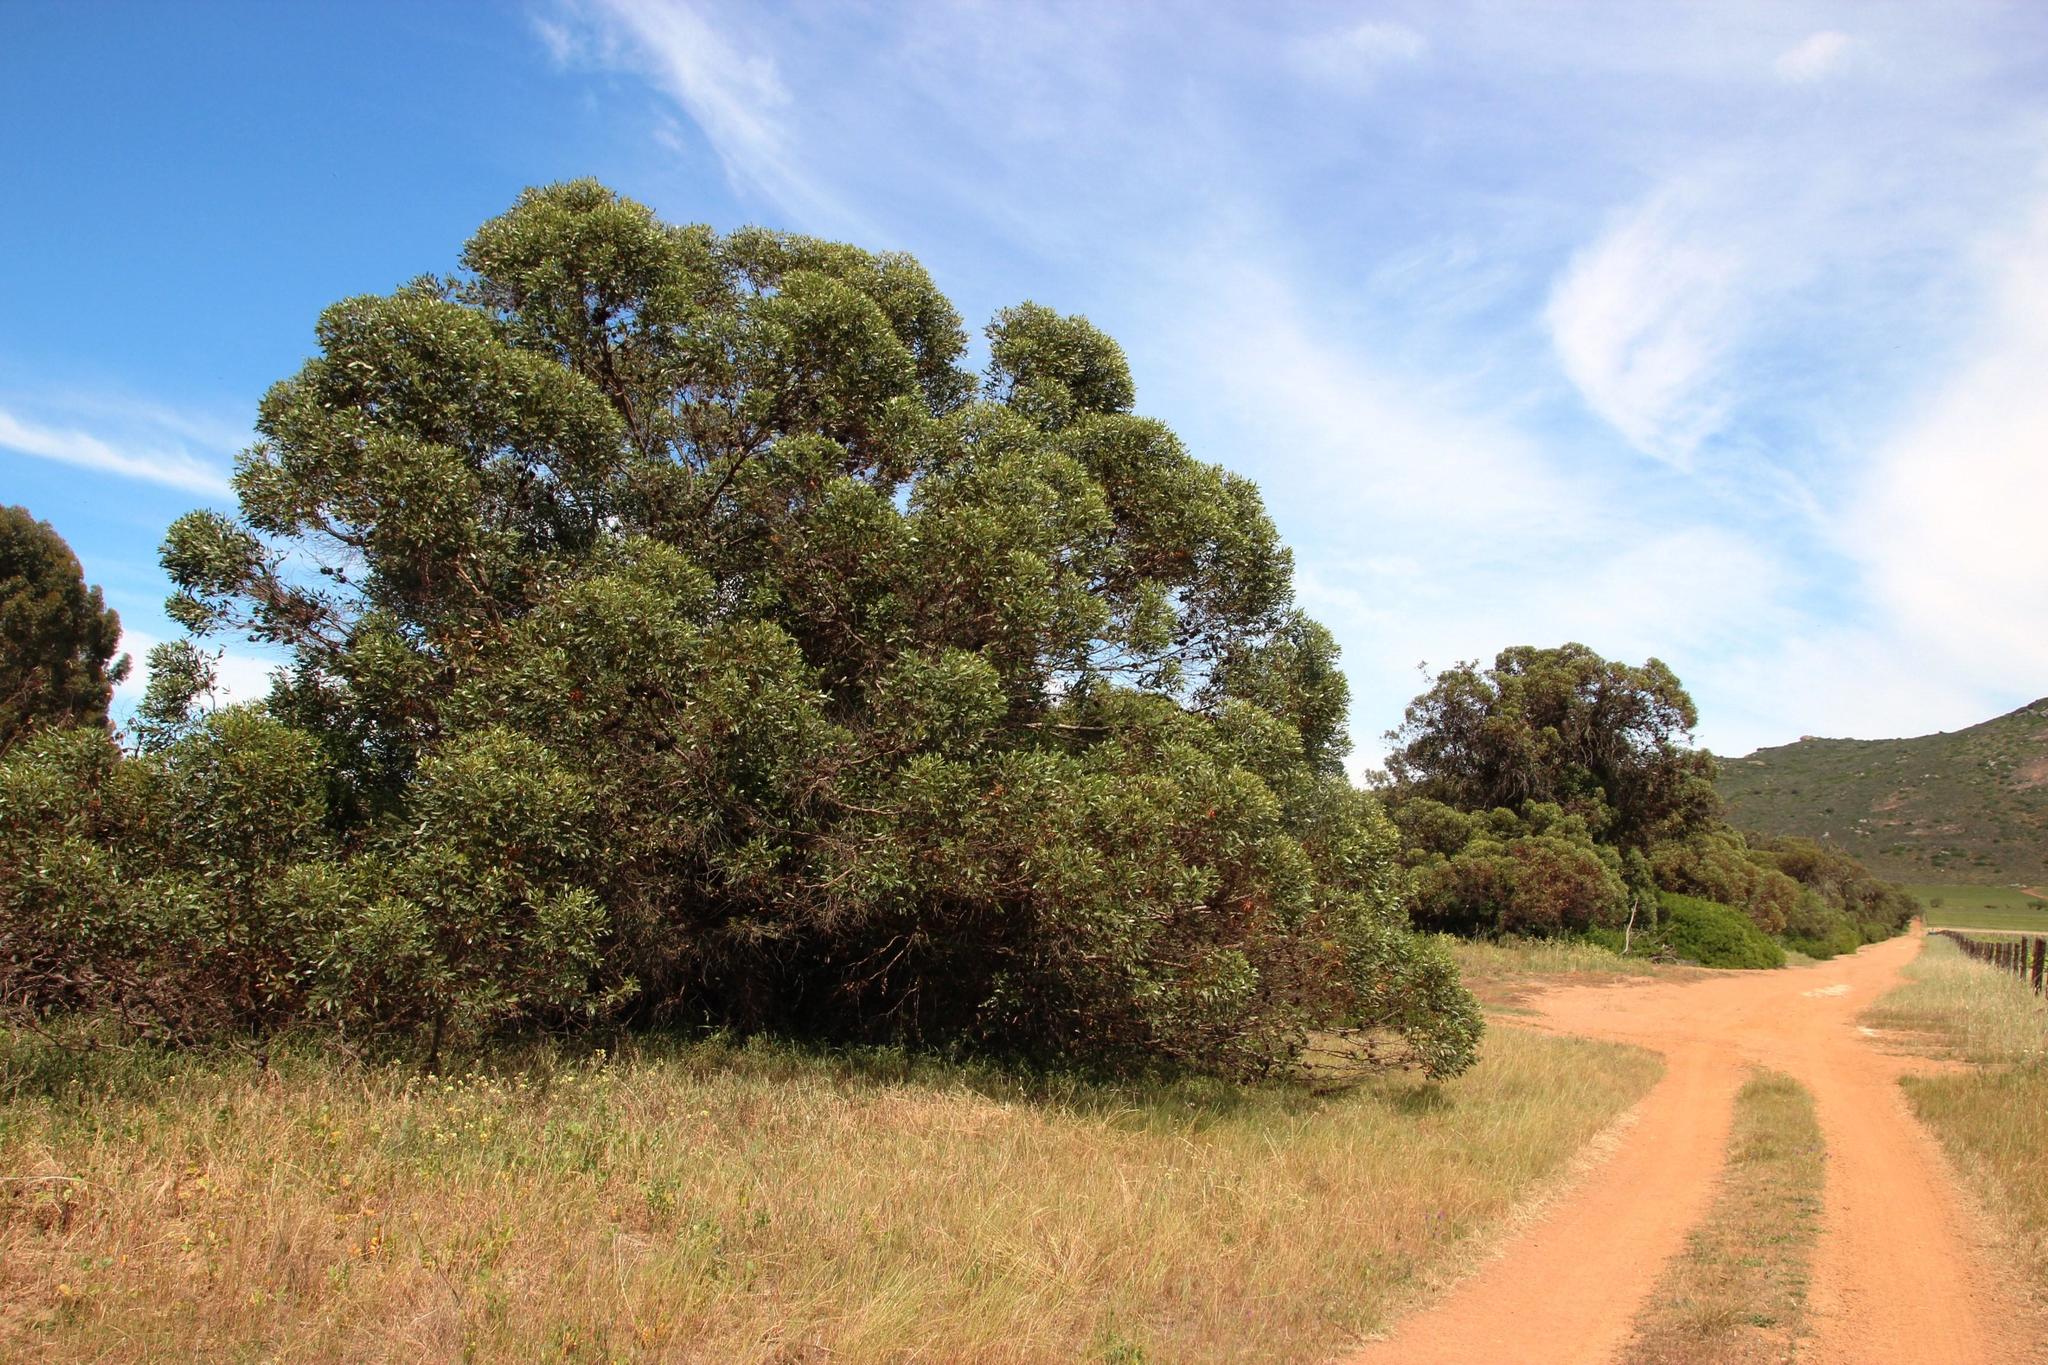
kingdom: Plantae
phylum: Tracheophyta
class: Magnoliopsida
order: Myrtales
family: Myrtaceae
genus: Eucalyptus
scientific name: Eucalyptus conferruminata
